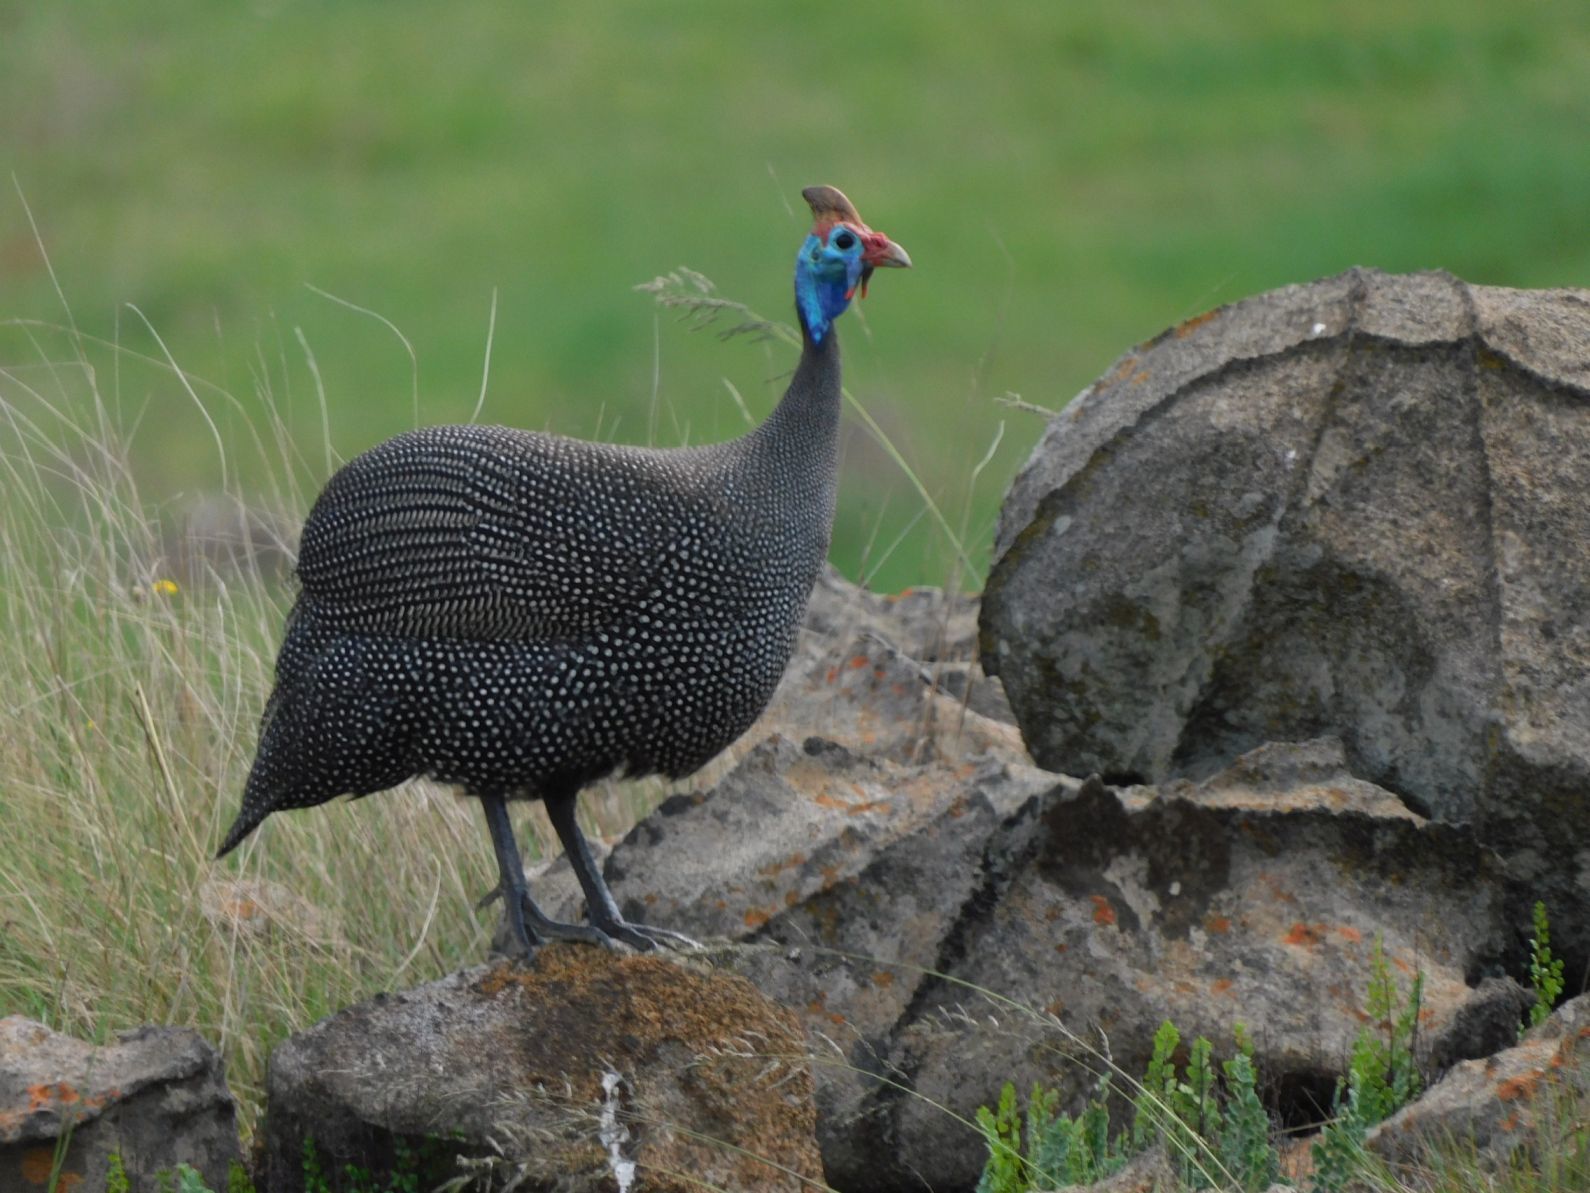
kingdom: Animalia
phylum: Chordata
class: Aves
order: Galliformes
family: Numididae
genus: Numida
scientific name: Numida meleagris
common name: Helmeted guineafowl
